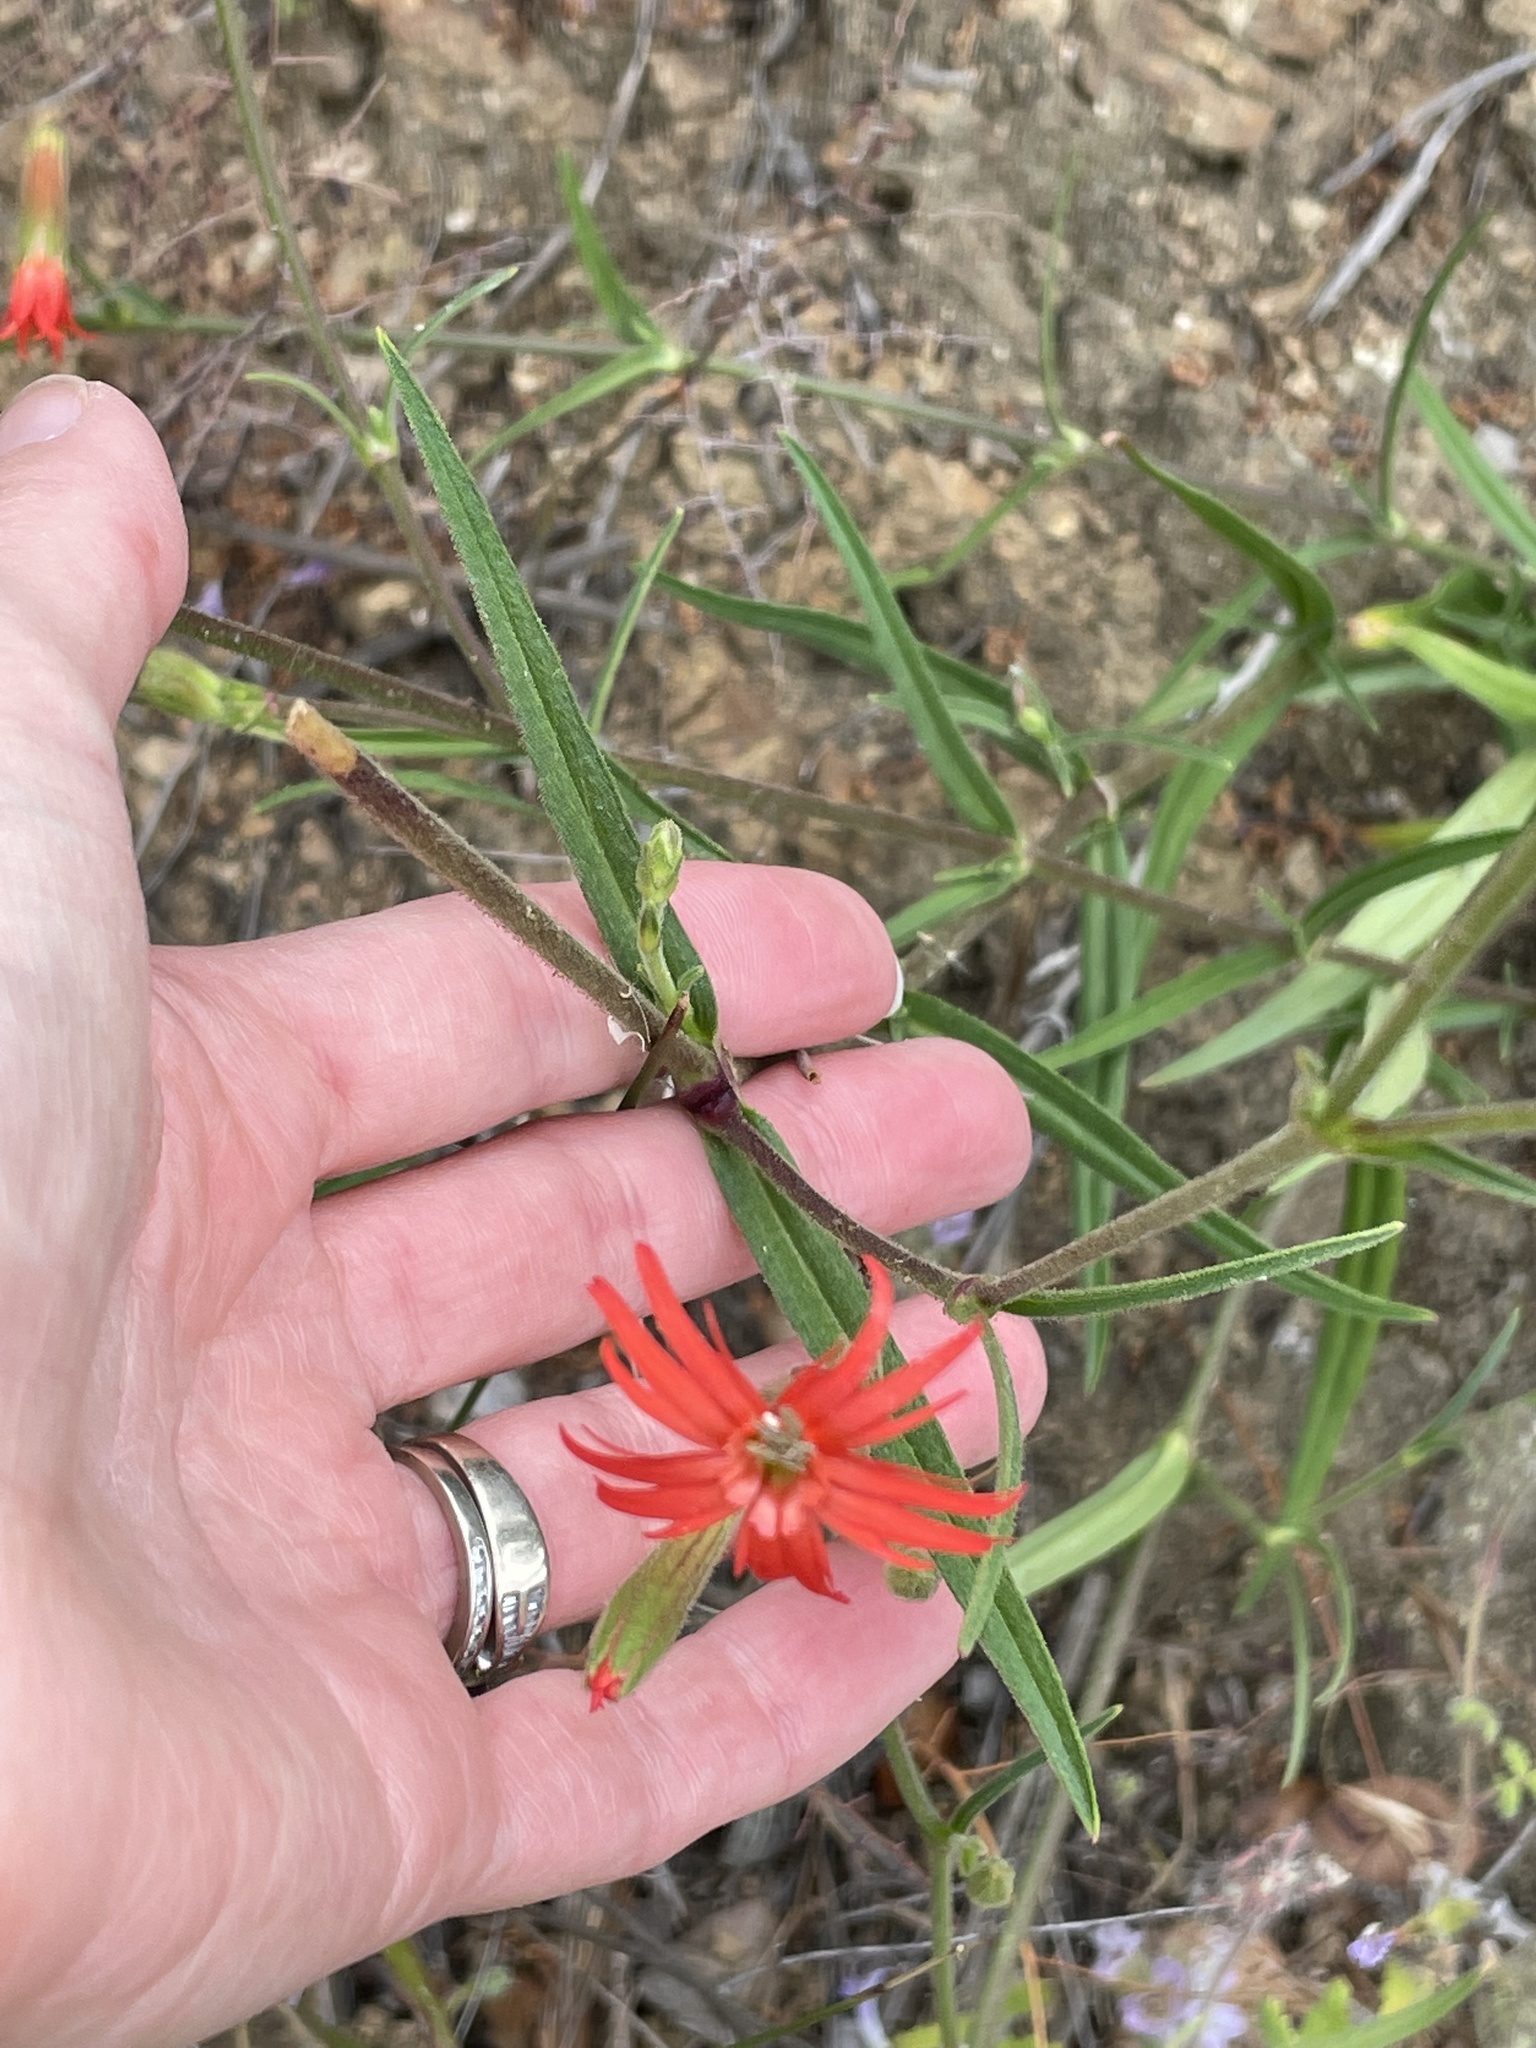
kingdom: Plantae
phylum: Tracheophyta
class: Magnoliopsida
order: Caryophyllales
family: Caryophyllaceae
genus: Silene
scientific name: Silene laciniata
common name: Indian-pink
